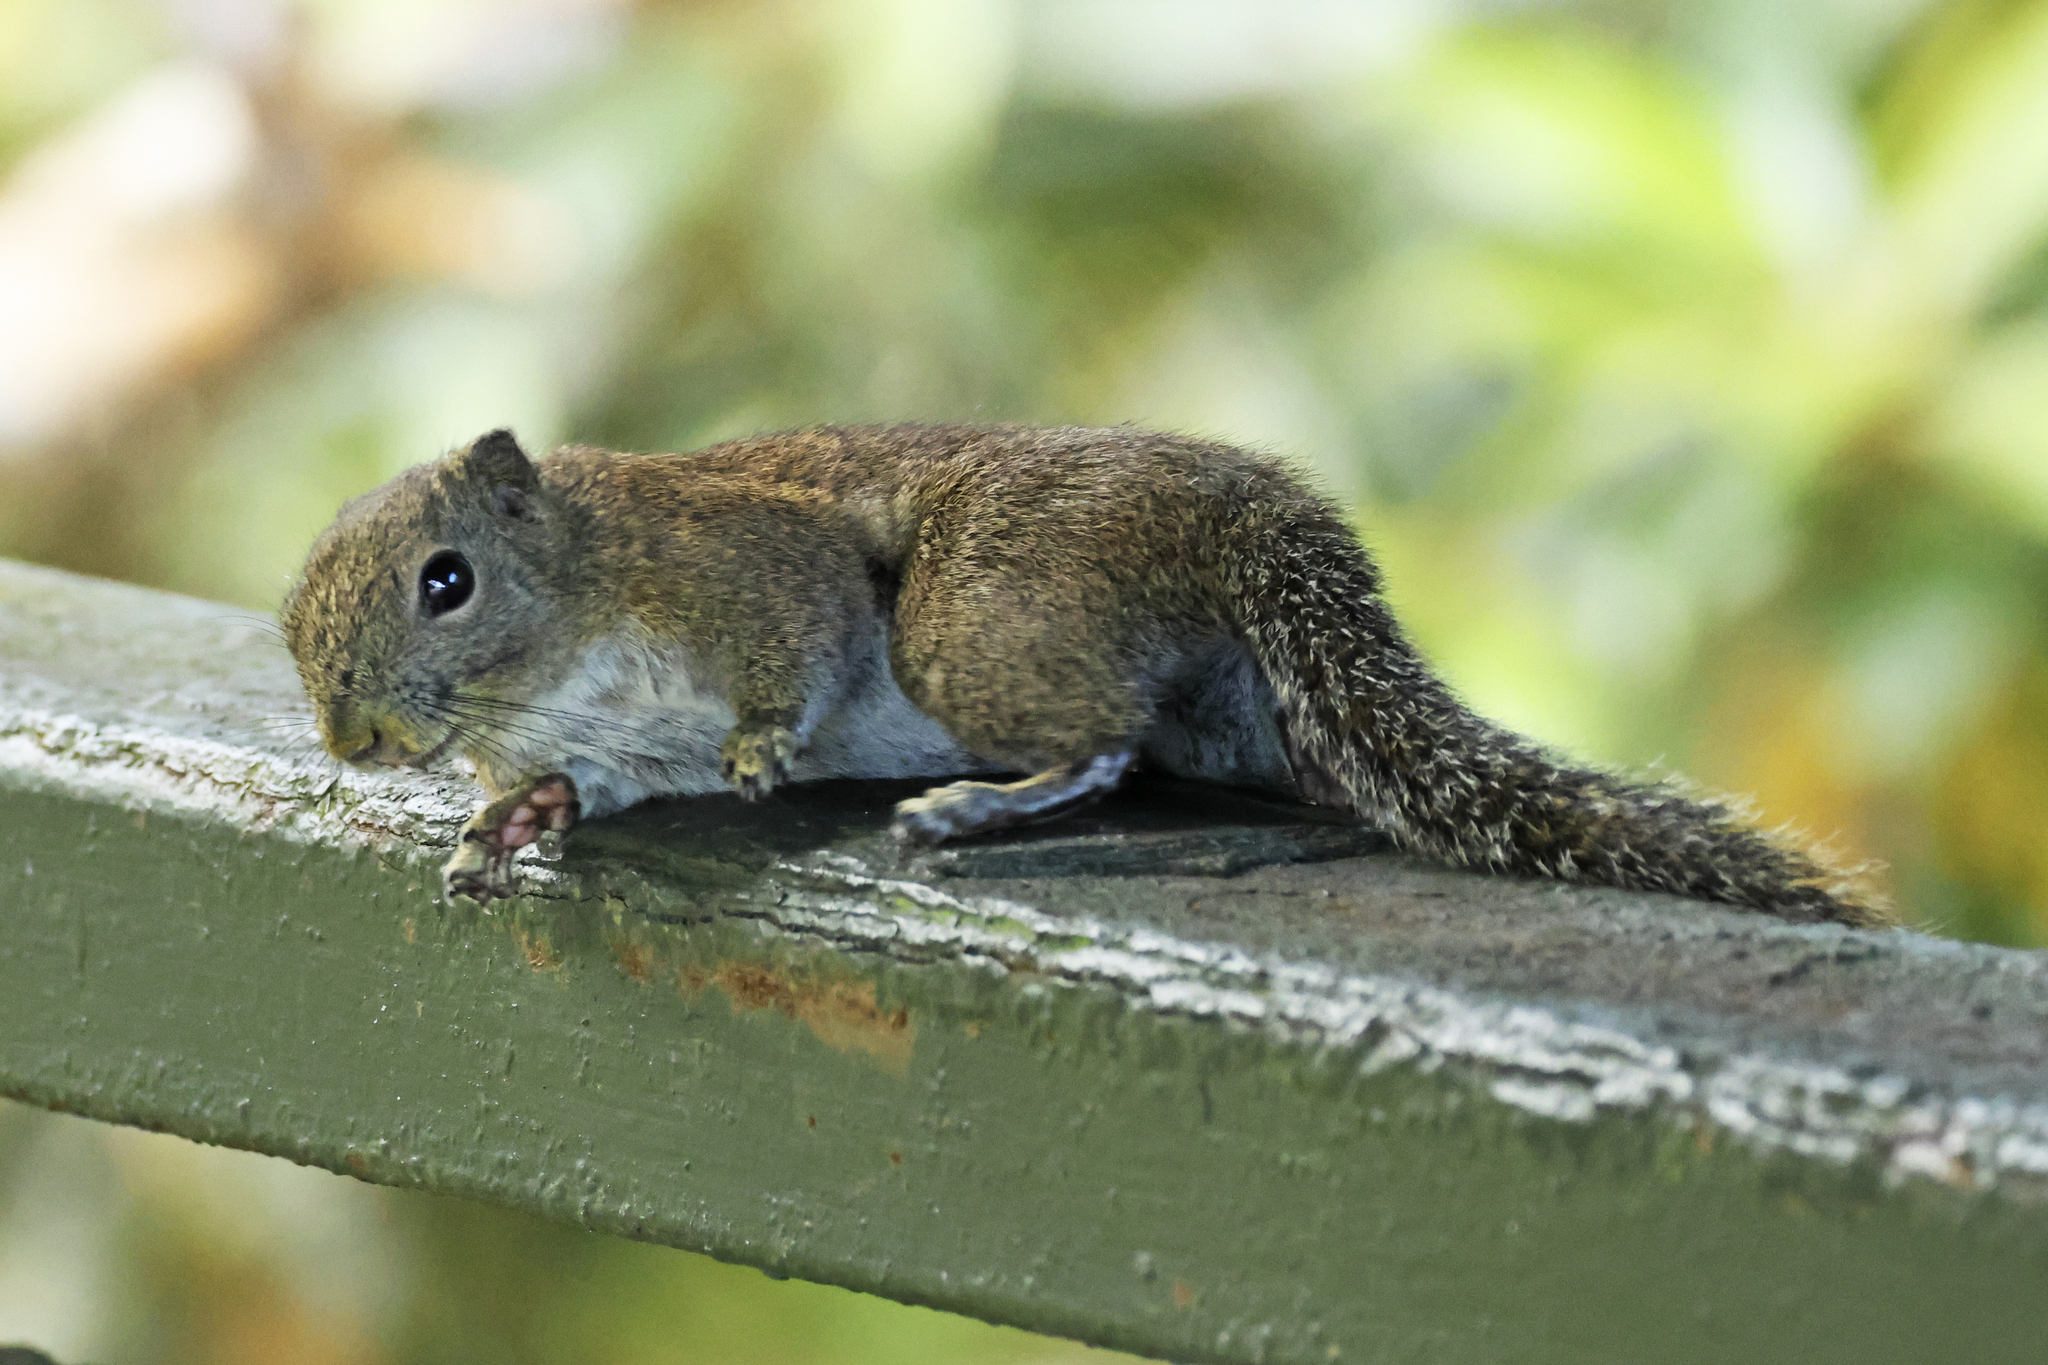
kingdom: Animalia
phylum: Chordata
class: Mammalia
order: Rodentia
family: Sciuridae
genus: Callosciurus
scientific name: Callosciurus orestes
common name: Borneo black-banded squirrel
